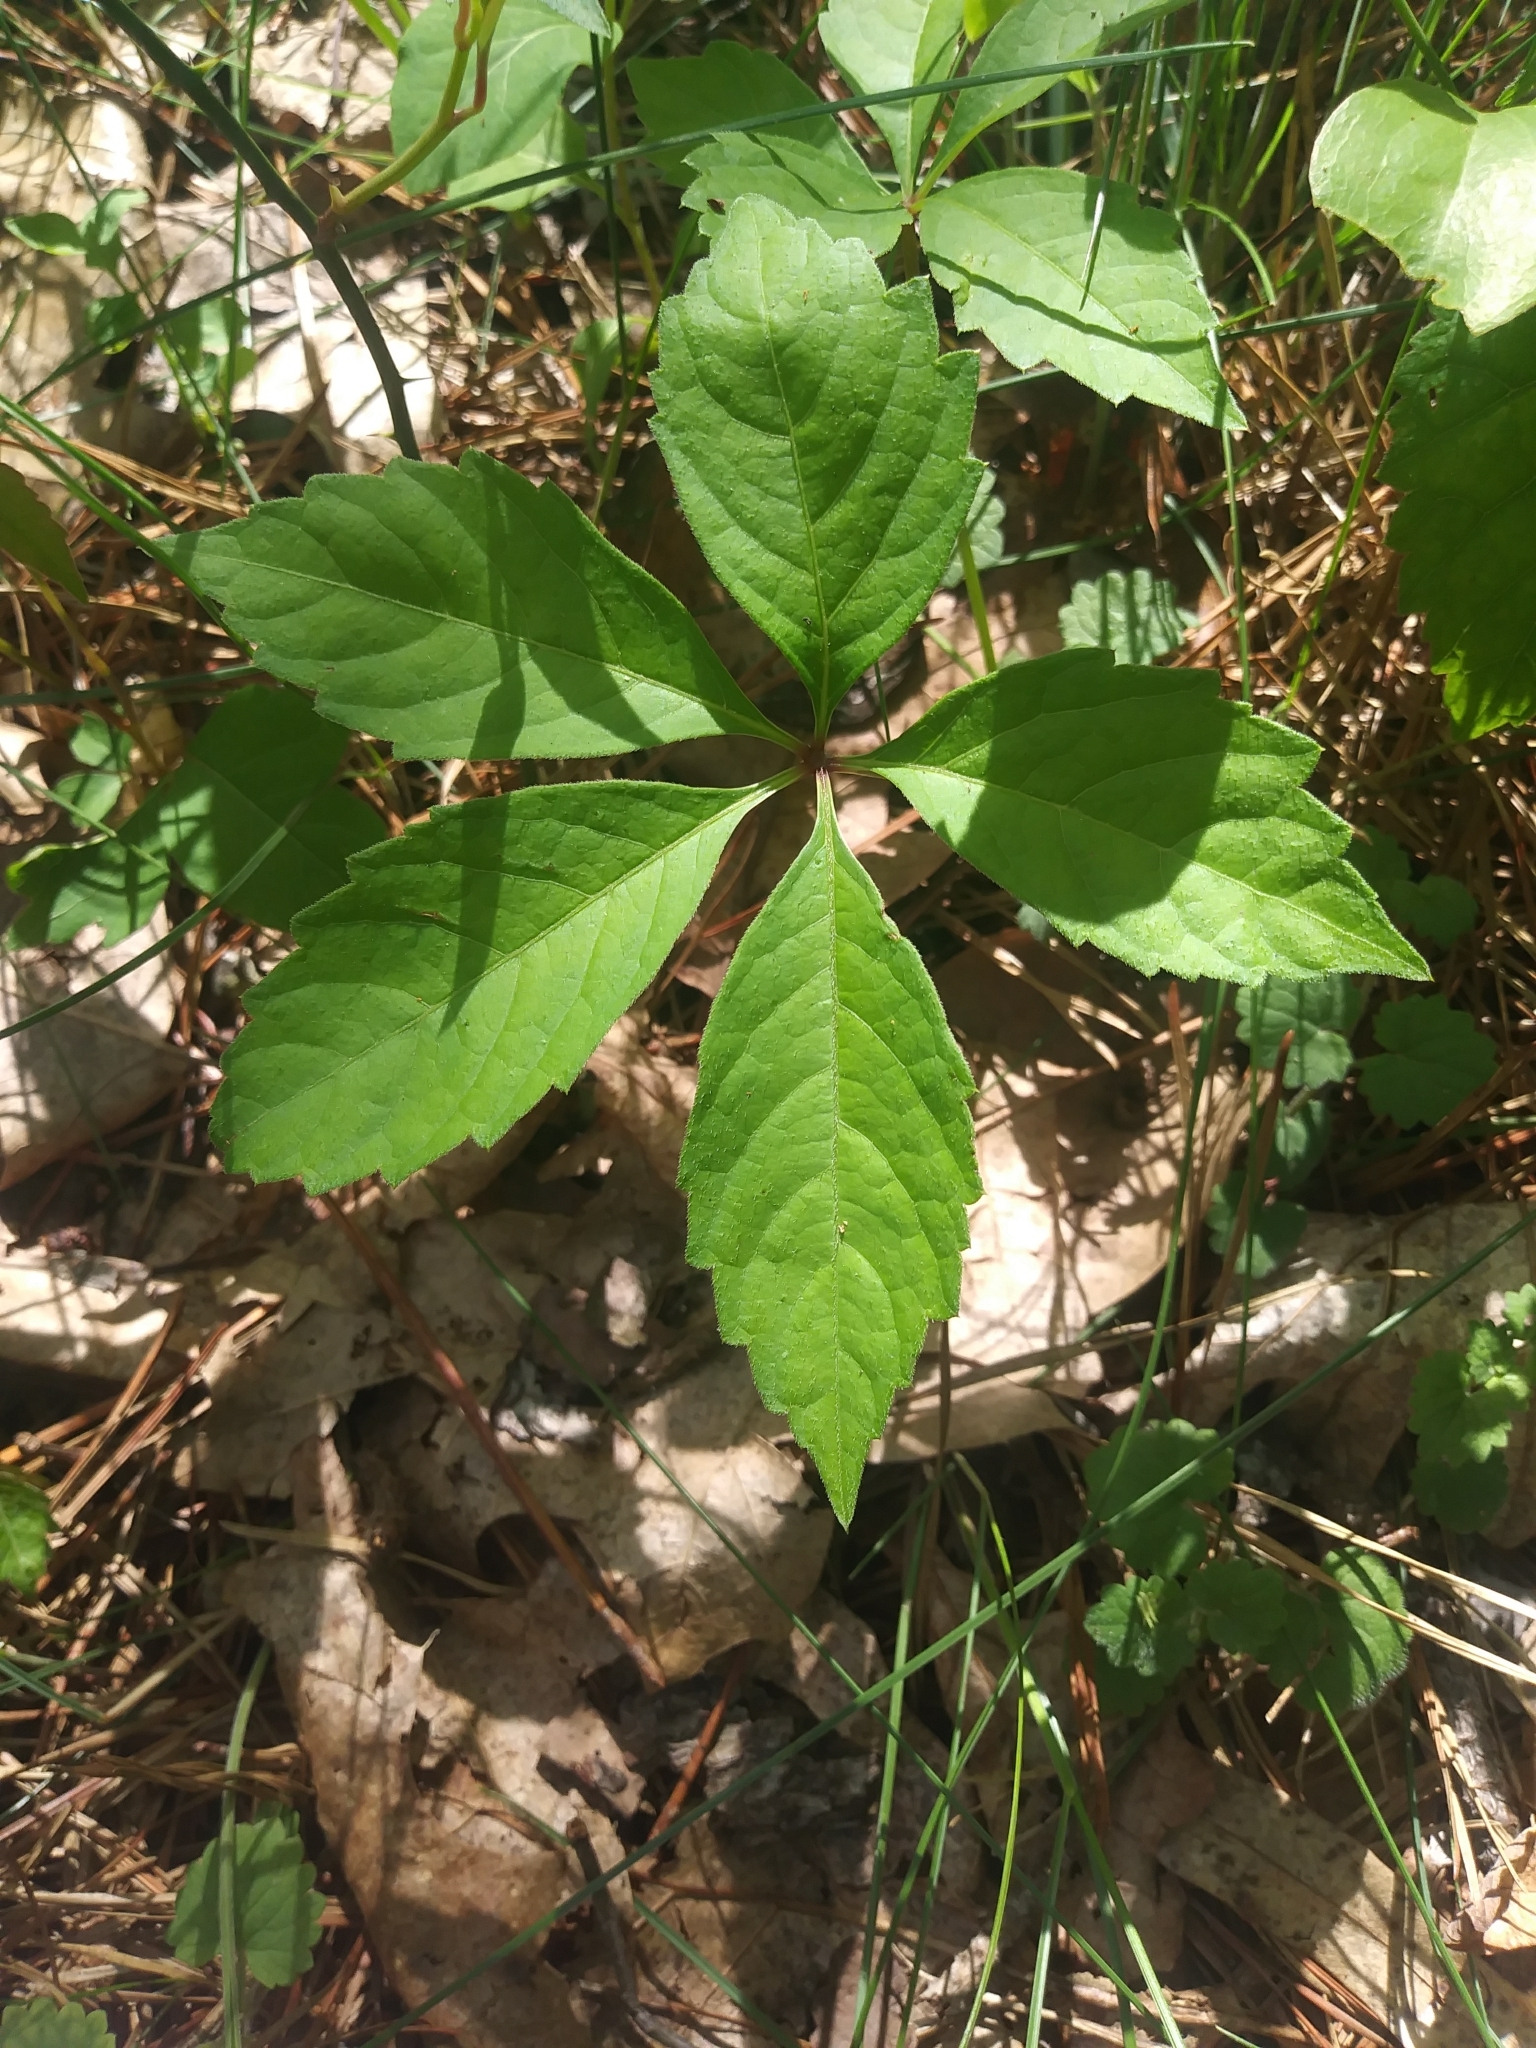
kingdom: Plantae
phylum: Tracheophyta
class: Magnoliopsida
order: Vitales
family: Vitaceae
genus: Parthenocissus
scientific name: Parthenocissus quinquefolia
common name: Virginia-creeper
